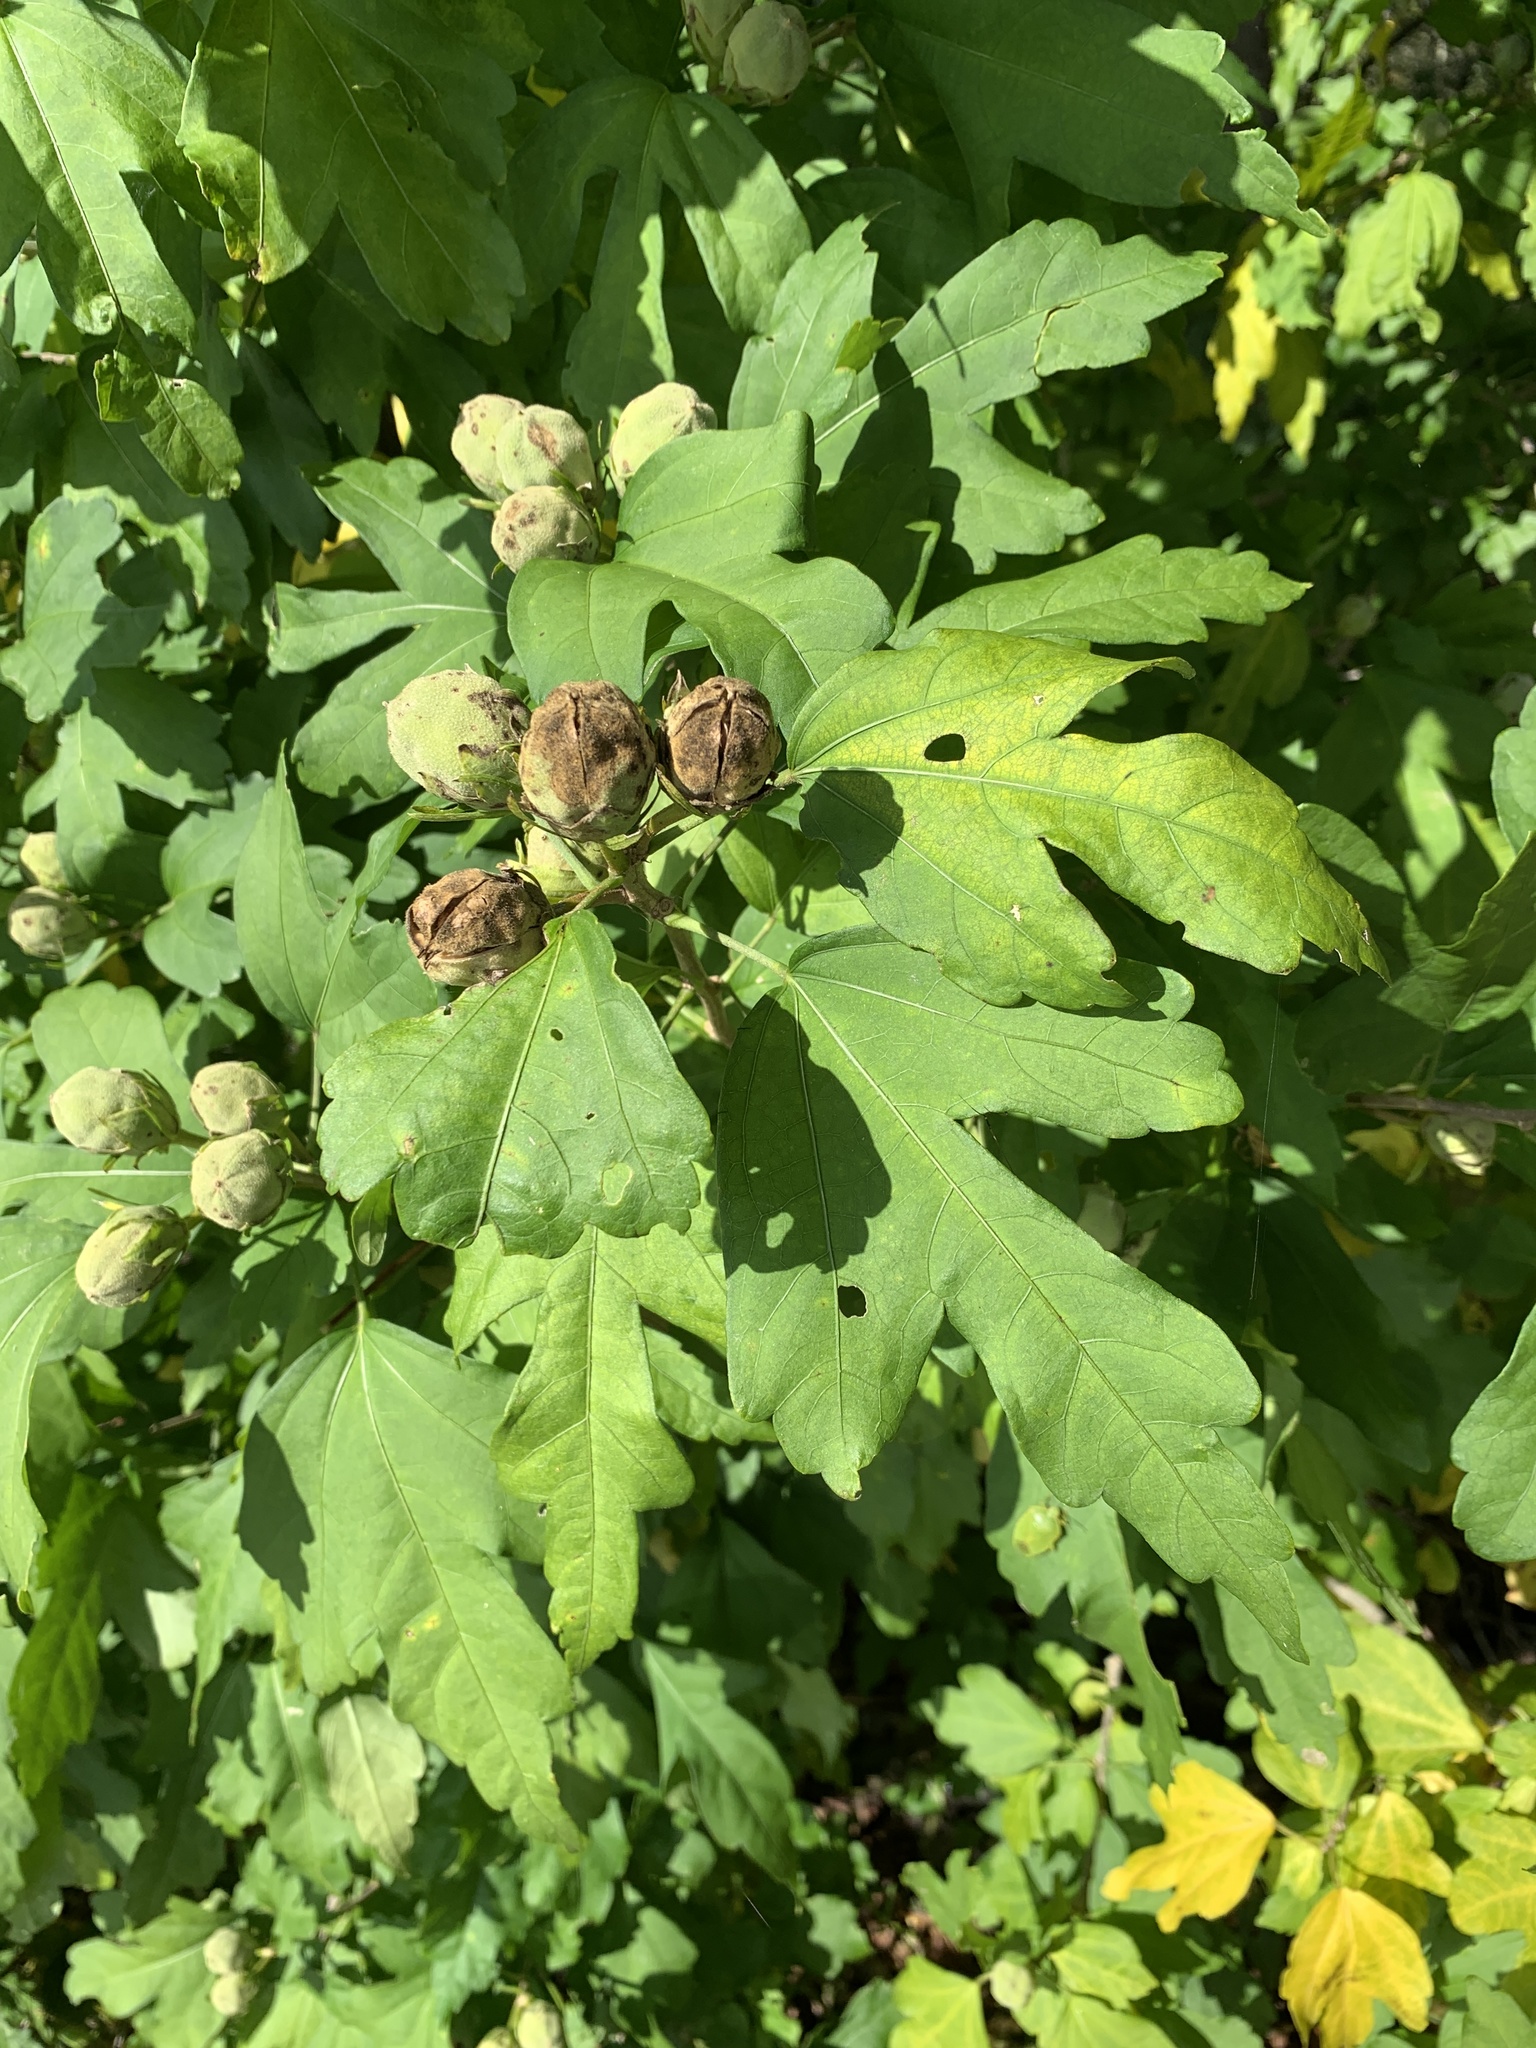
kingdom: Plantae
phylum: Tracheophyta
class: Magnoliopsida
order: Malvales
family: Malvaceae
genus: Hibiscus
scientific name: Hibiscus syriacus
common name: Syrian ketmia
